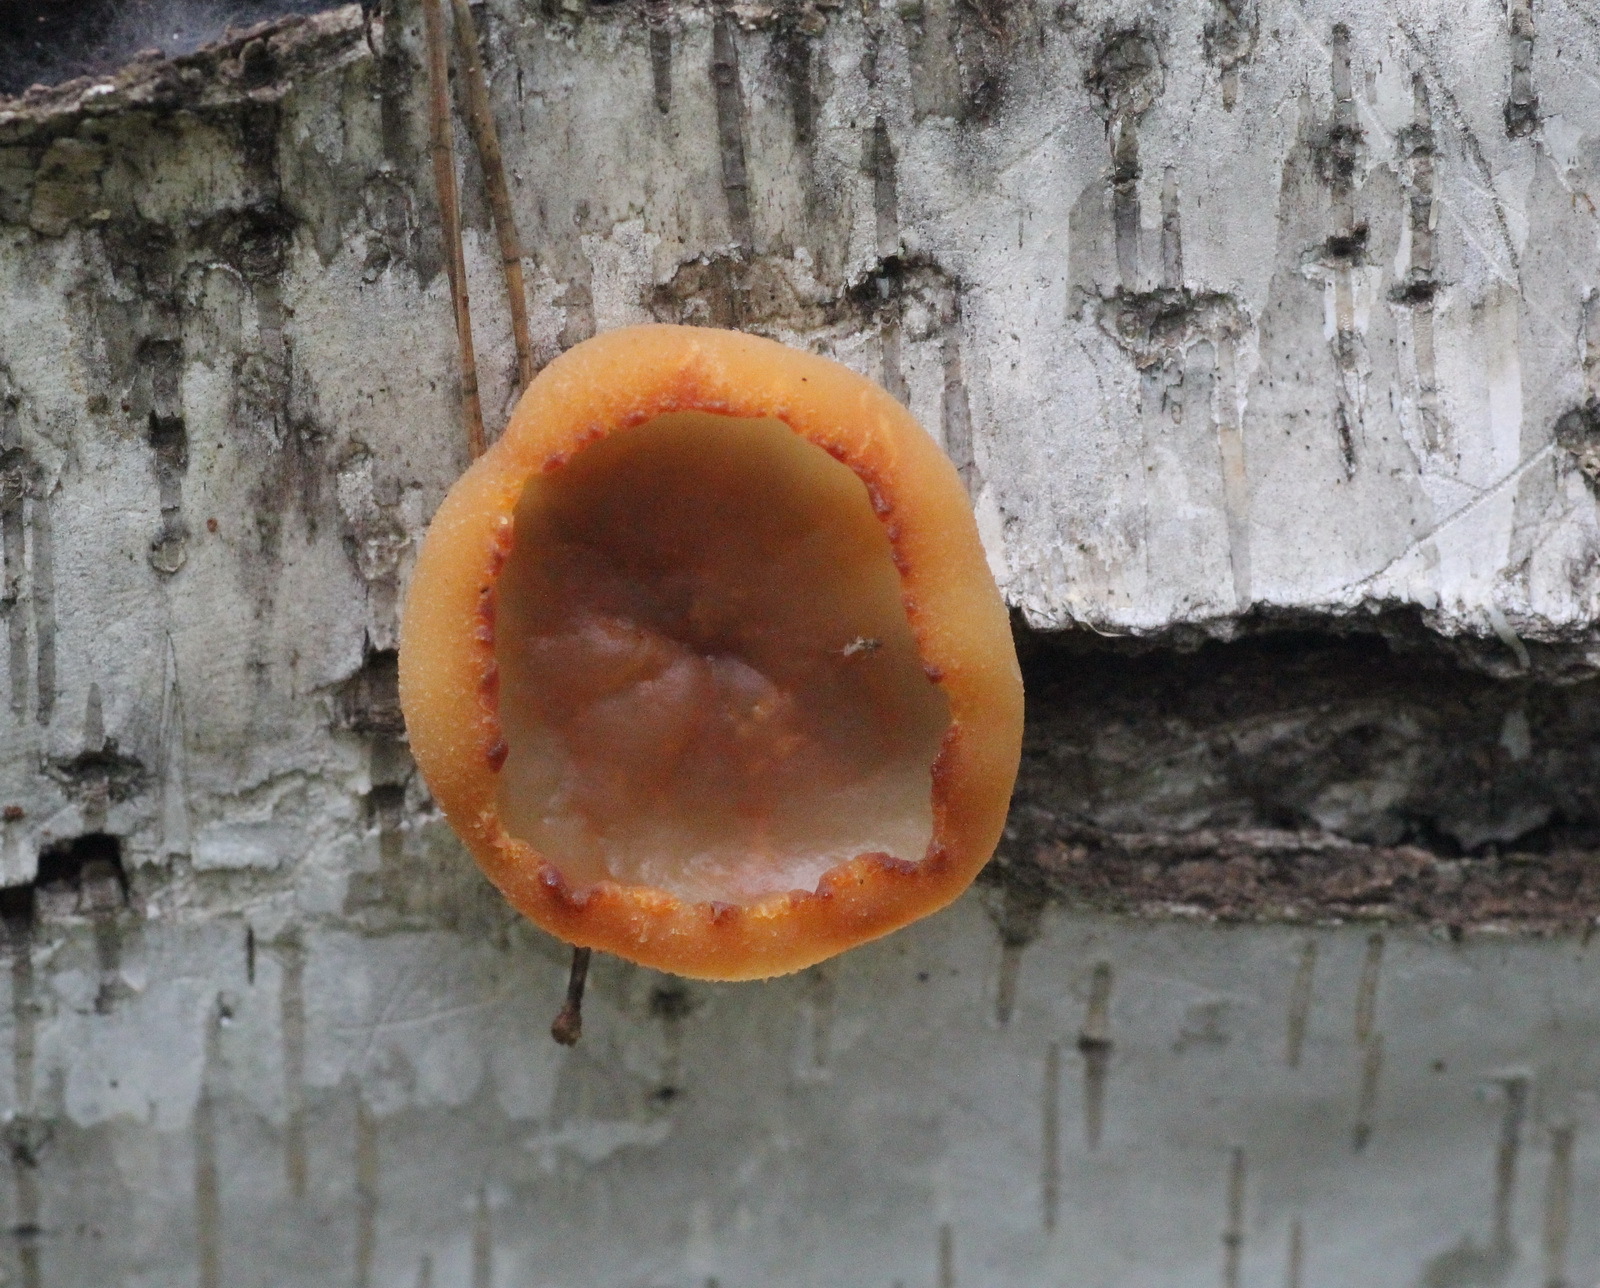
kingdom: Fungi
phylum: Ascomycota
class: Pezizomycetes
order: Pezizales
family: Pezizaceae
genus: Peziza
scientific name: Peziza varia
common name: Layered cup
